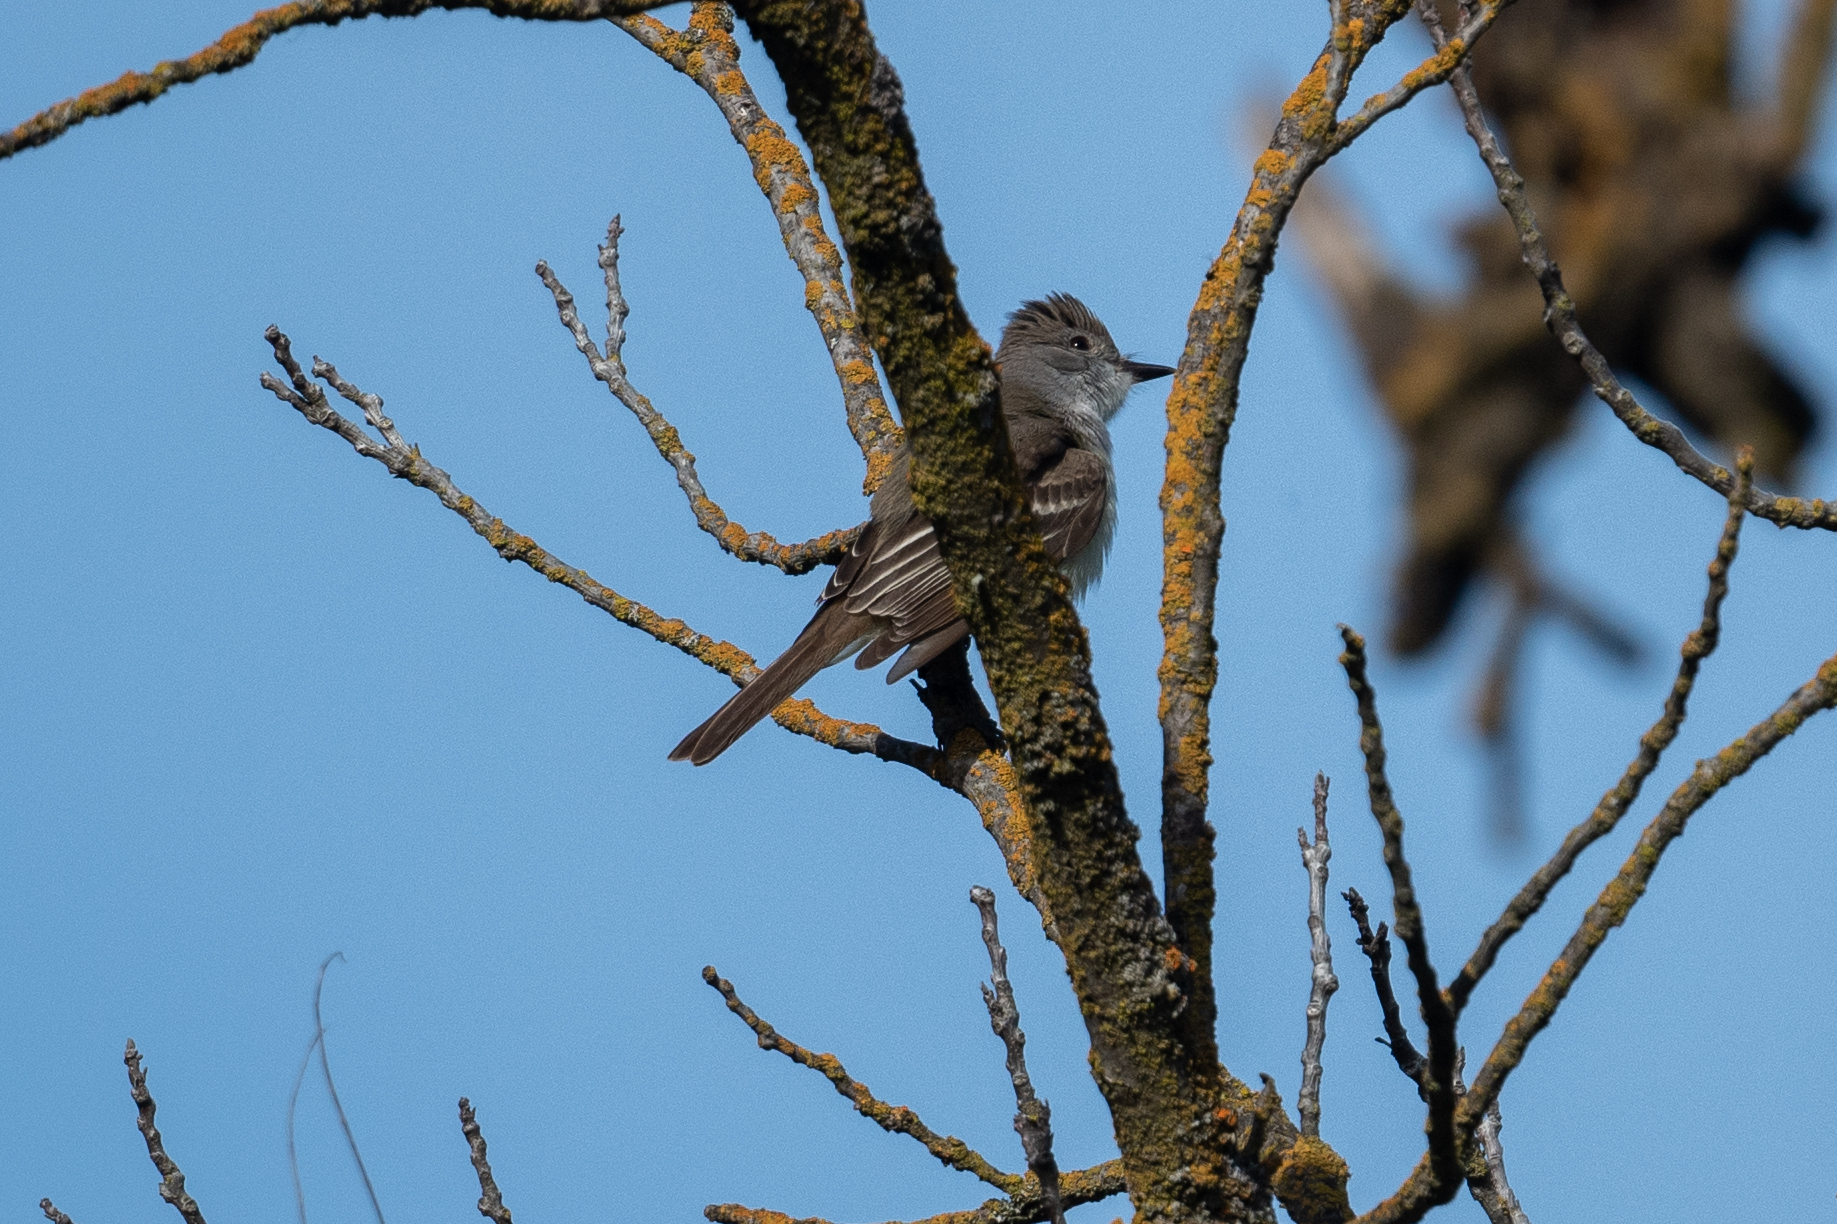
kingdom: Animalia
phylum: Chordata
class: Aves
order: Passeriformes
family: Tyrannidae
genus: Myiarchus
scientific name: Myiarchus cinerascens
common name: Ash-throated flycatcher
